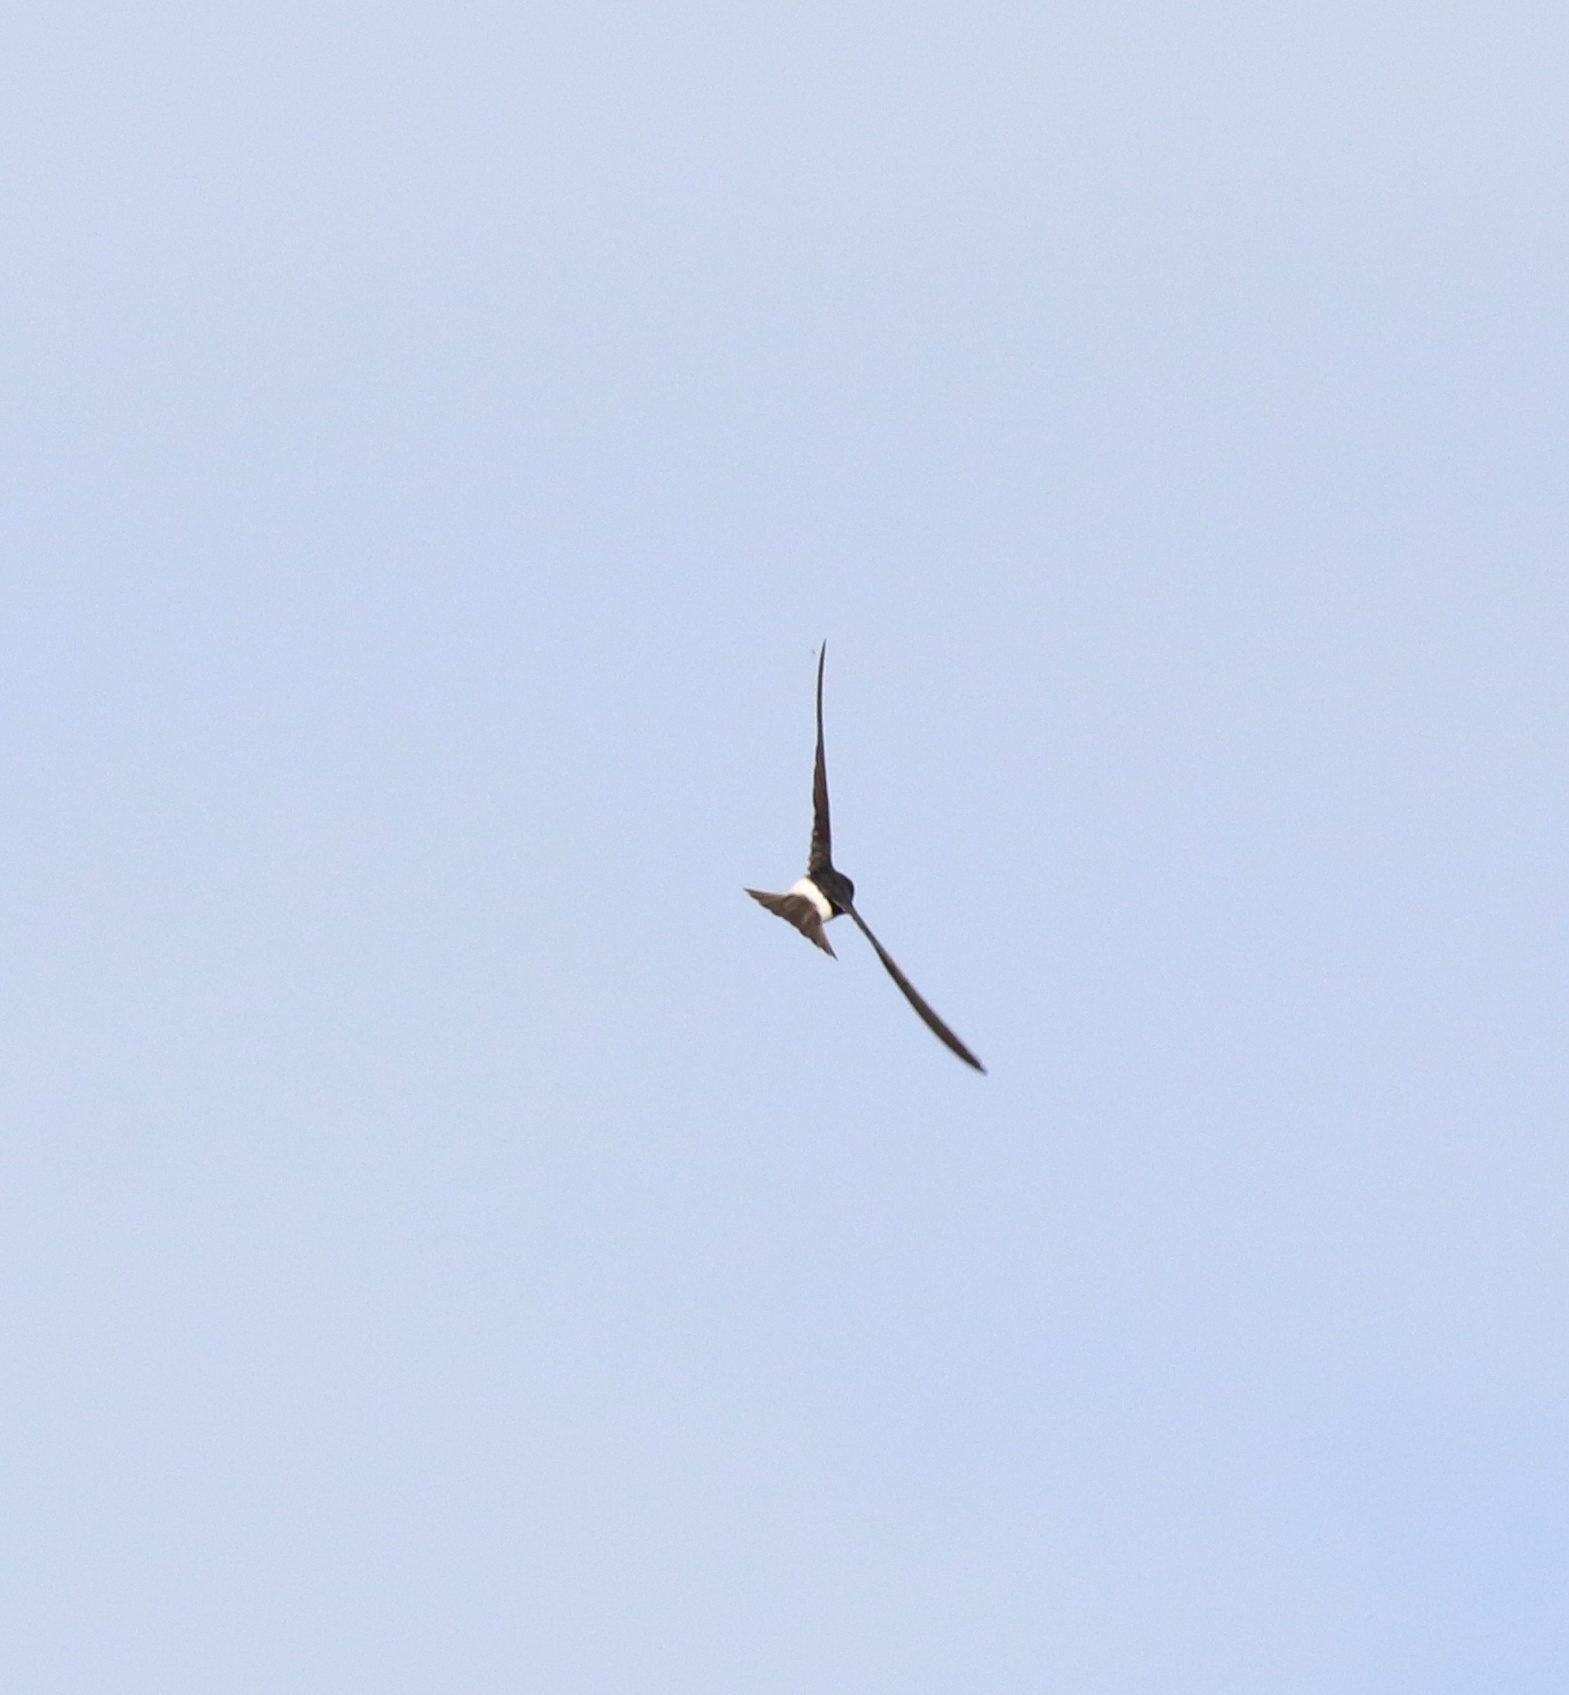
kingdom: Animalia
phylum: Chordata
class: Aves
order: Apodiformes
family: Apodidae
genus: Apus
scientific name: Apus affinis
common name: Little swift
